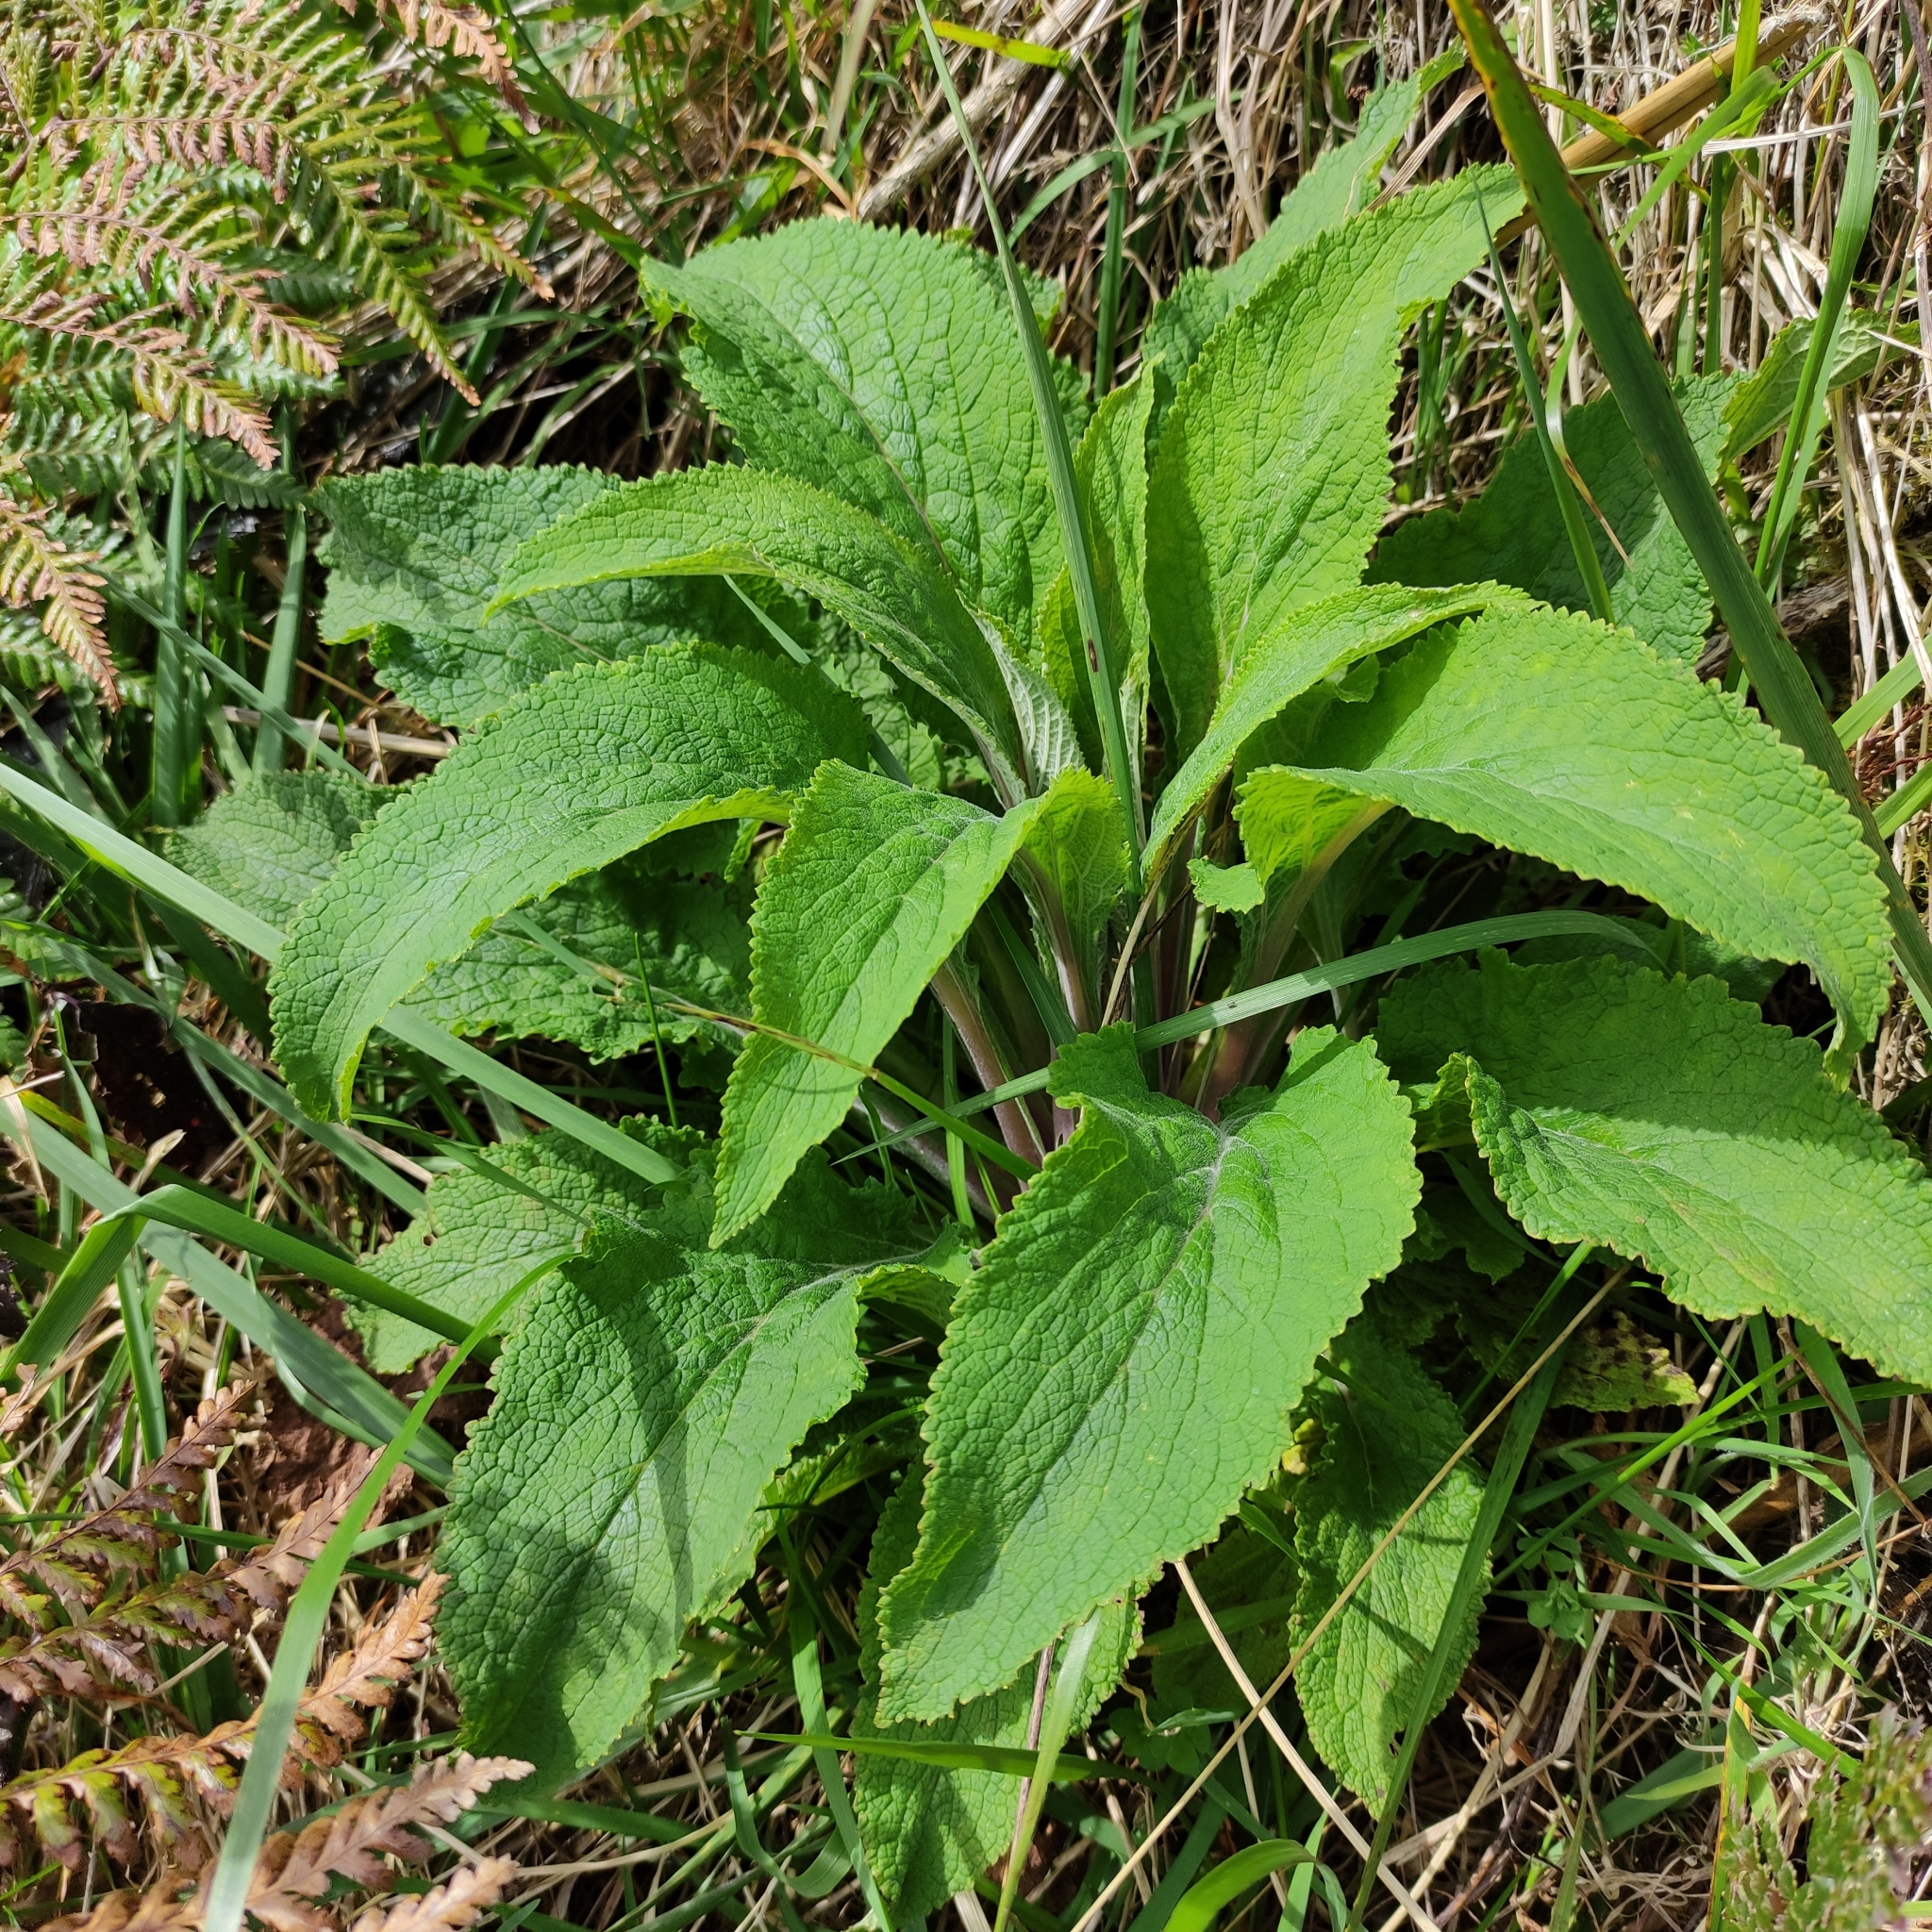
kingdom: Plantae
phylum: Tracheophyta
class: Magnoliopsida
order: Lamiales
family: Plantaginaceae
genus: Digitalis
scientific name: Digitalis purpurea
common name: Foxglove
